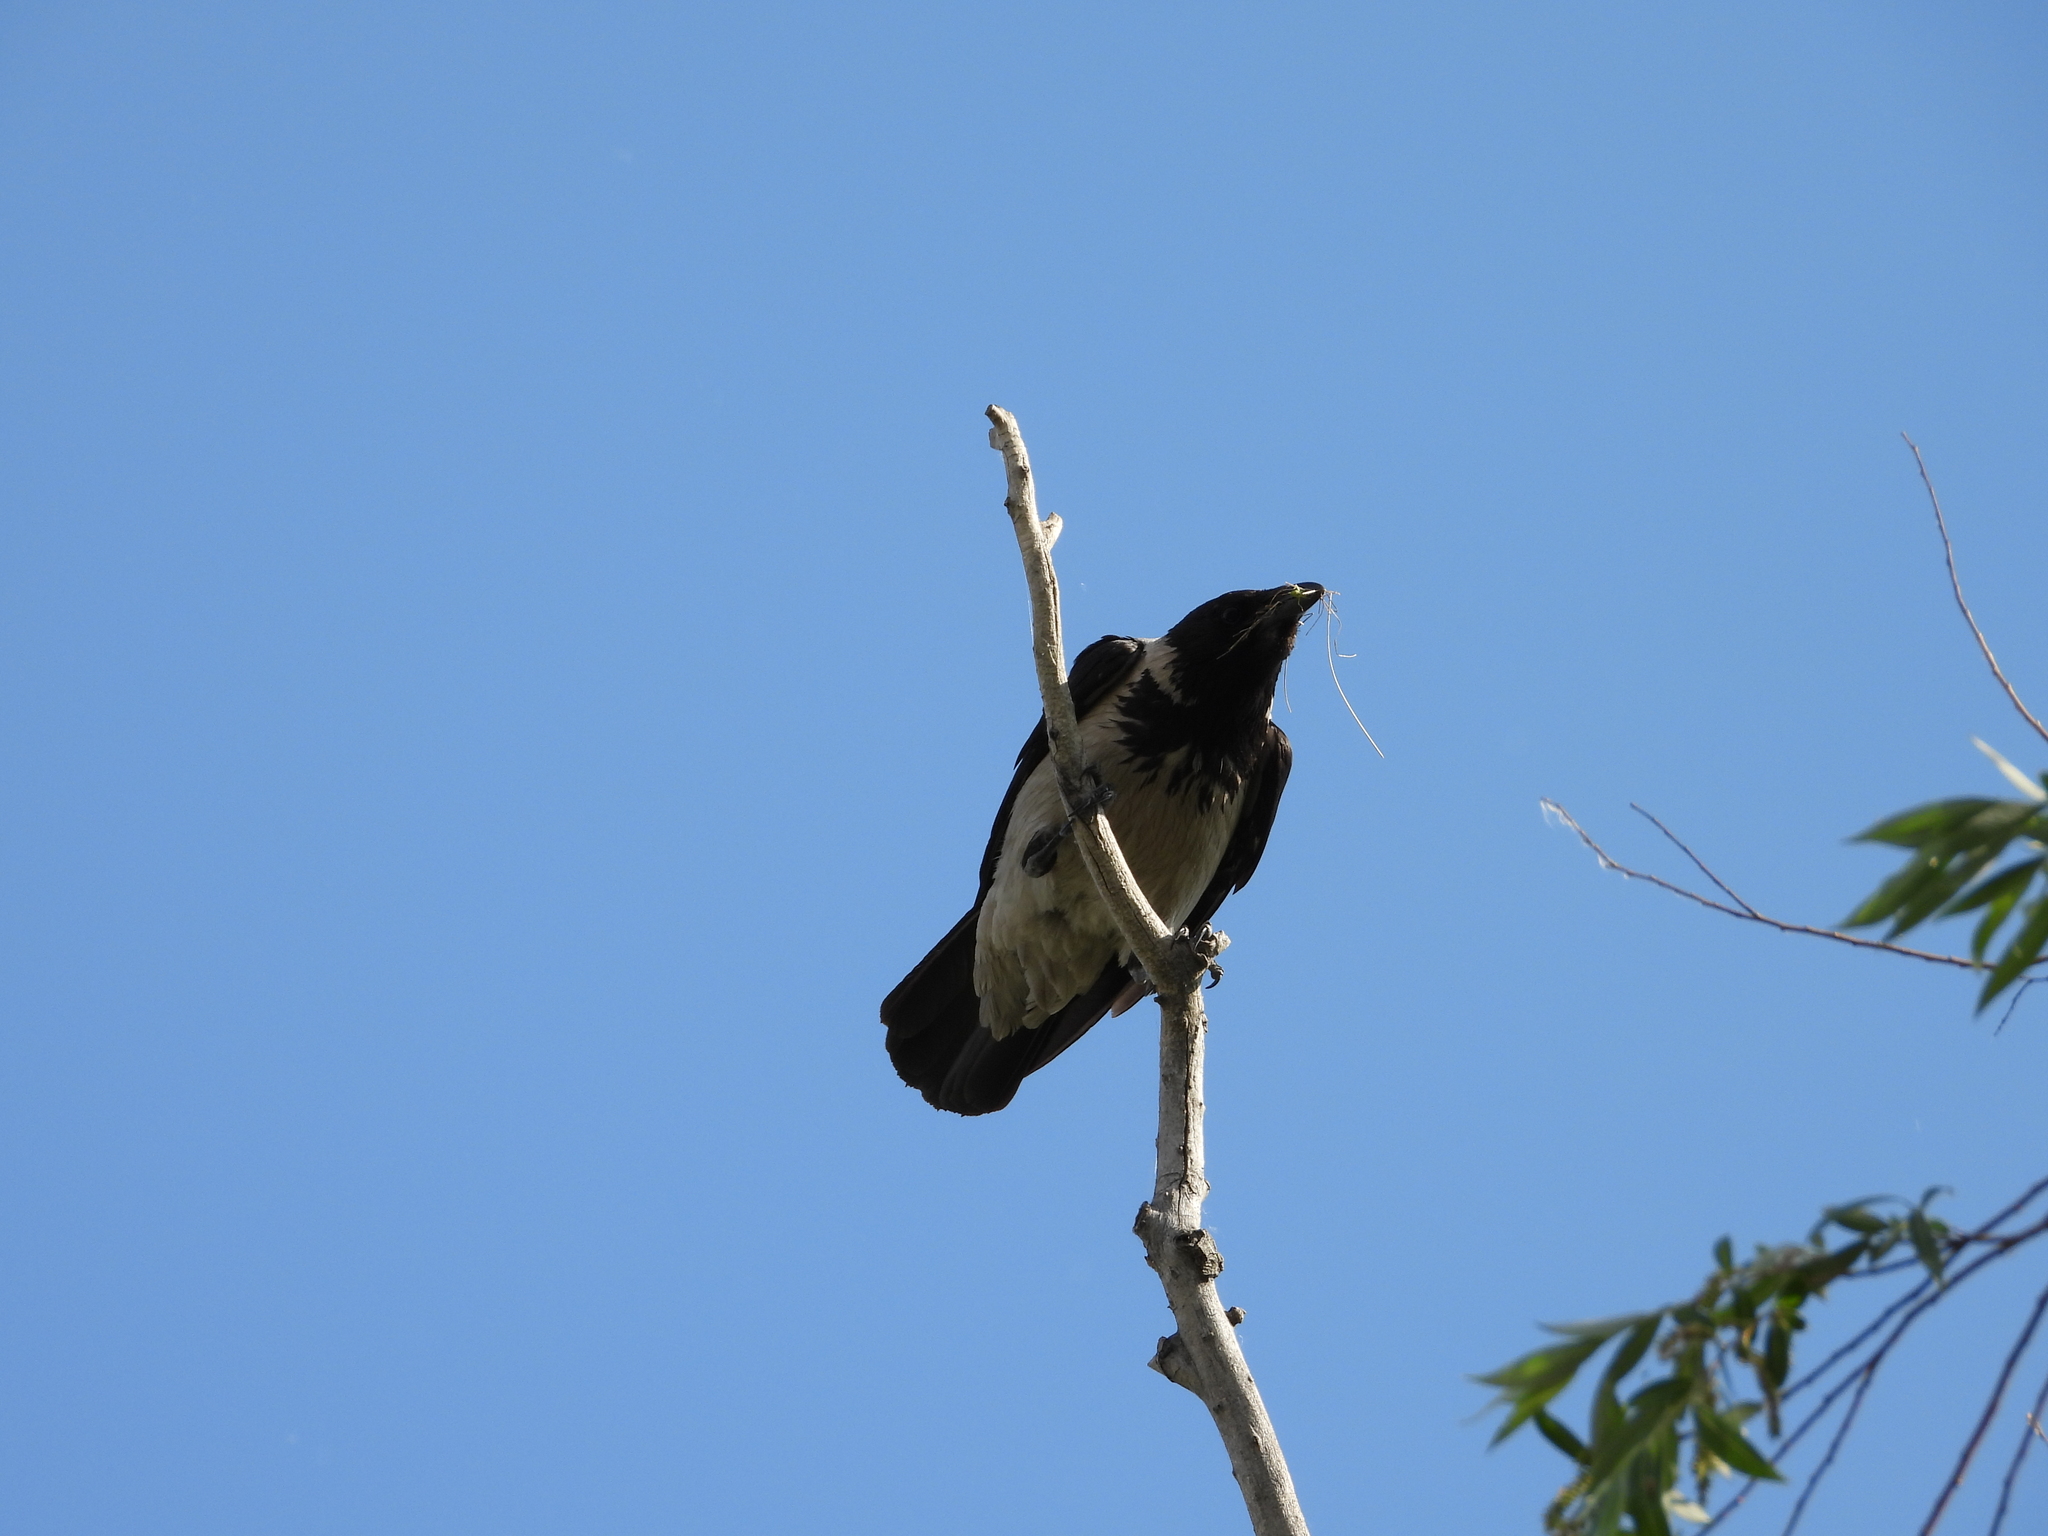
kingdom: Animalia
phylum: Chordata
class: Aves
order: Passeriformes
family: Corvidae
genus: Corvus
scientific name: Corvus cornix
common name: Hooded crow
